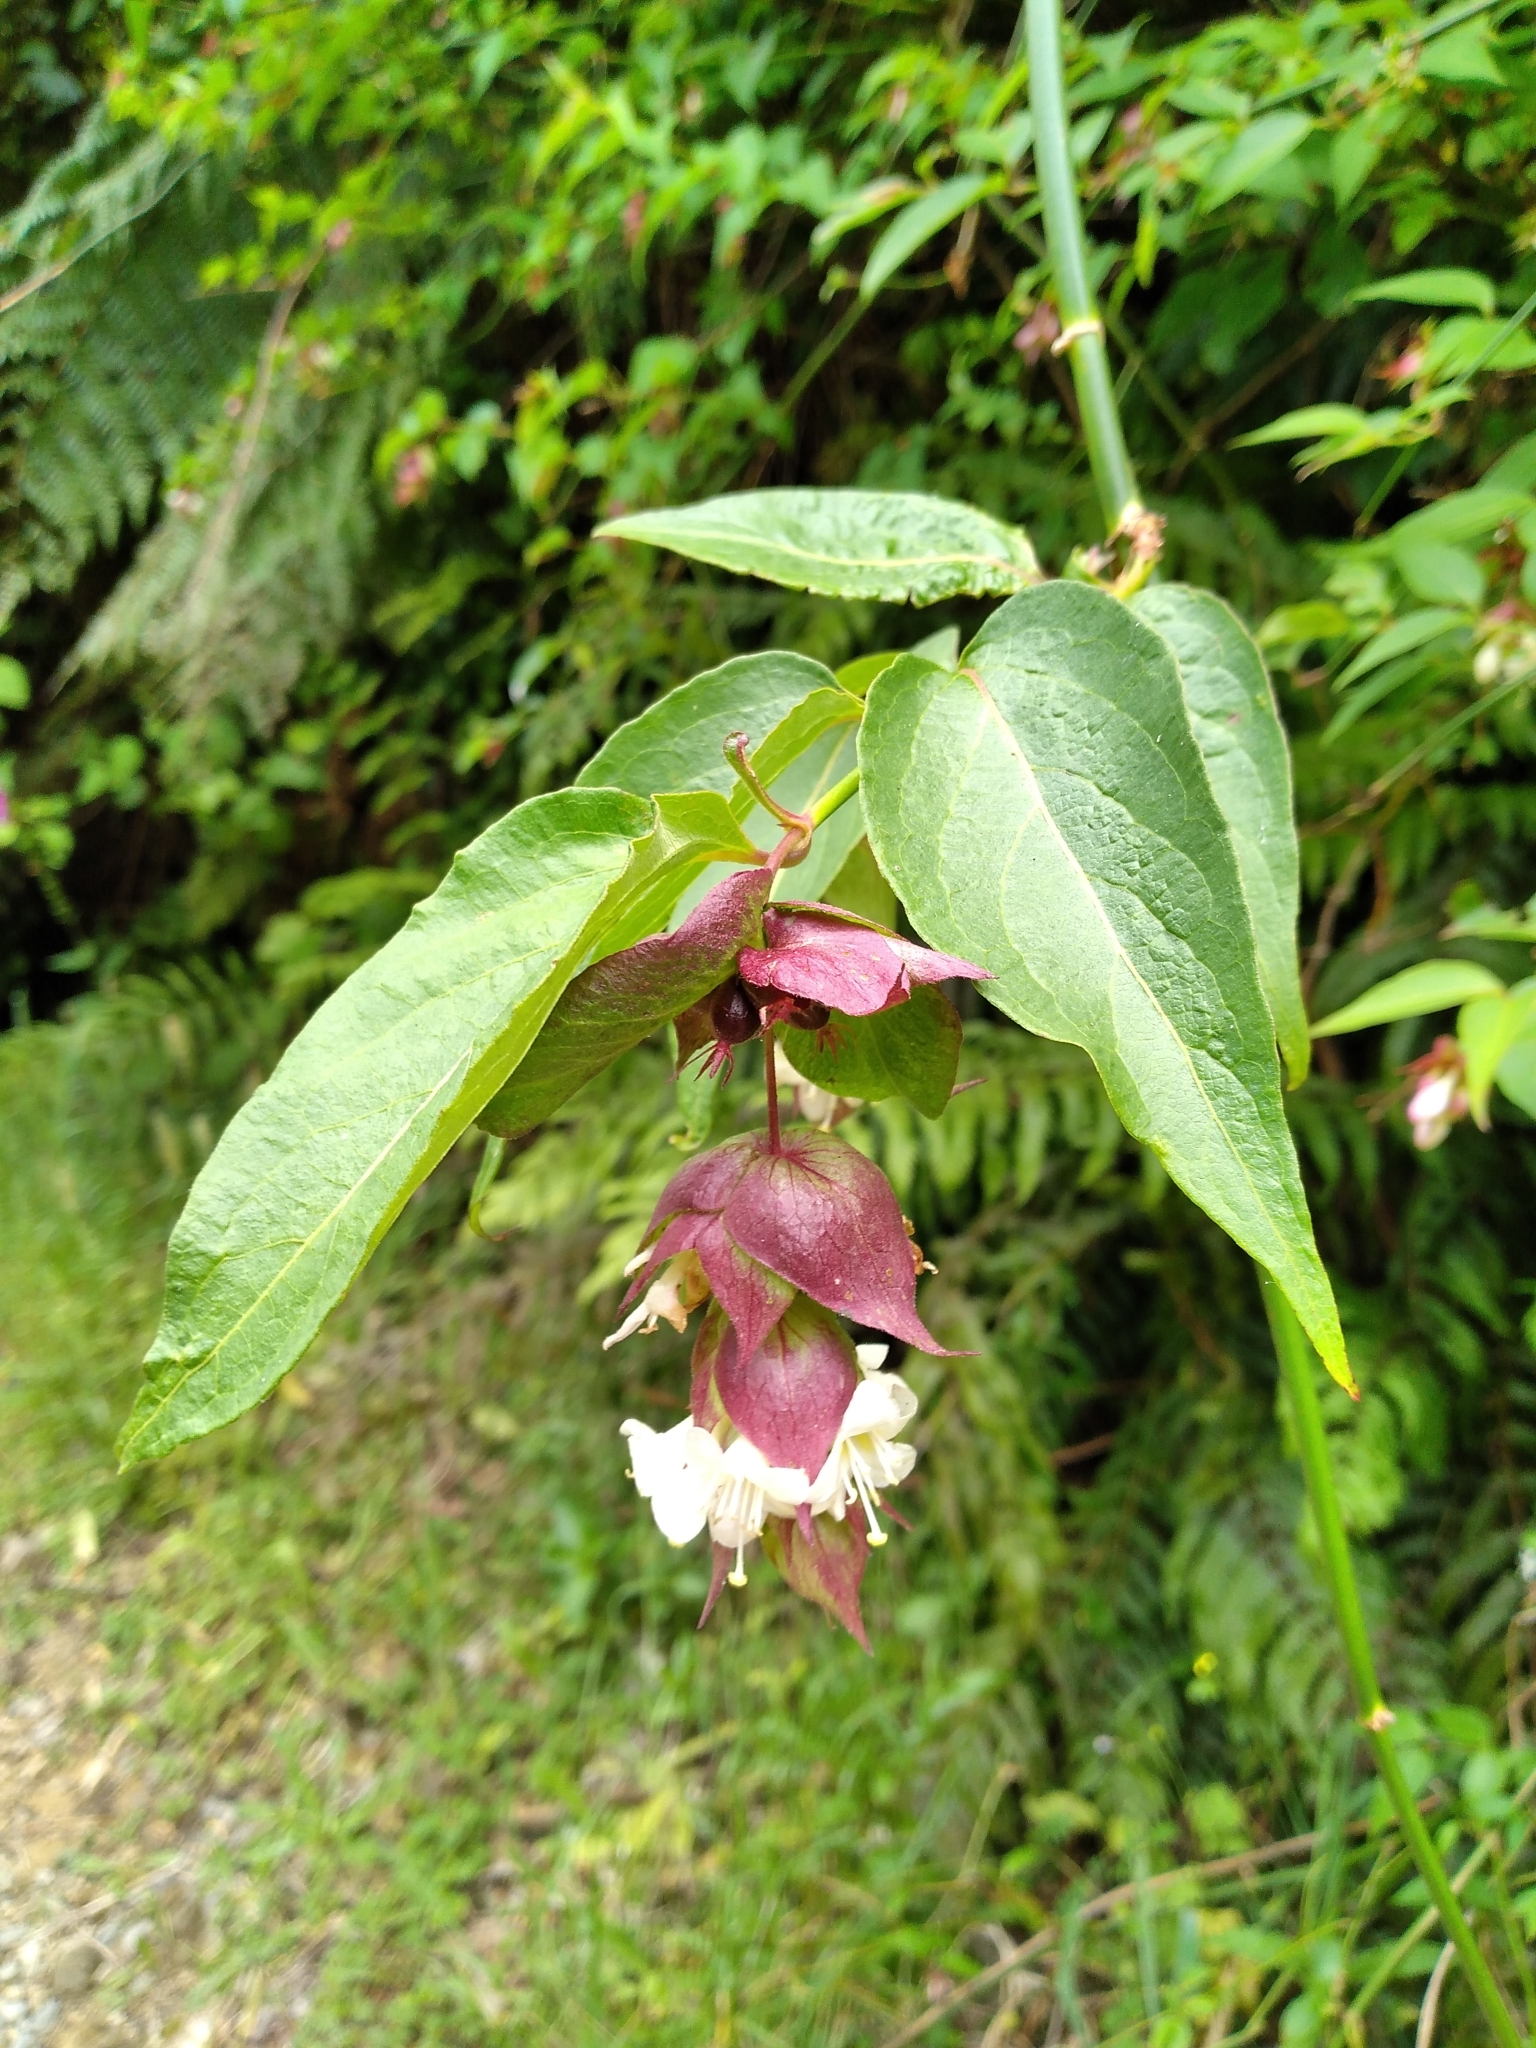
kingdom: Plantae
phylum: Tracheophyta
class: Magnoliopsida
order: Dipsacales
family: Caprifoliaceae
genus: Leycesteria
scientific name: Leycesteria formosa
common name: Himalayan honeysuckle
